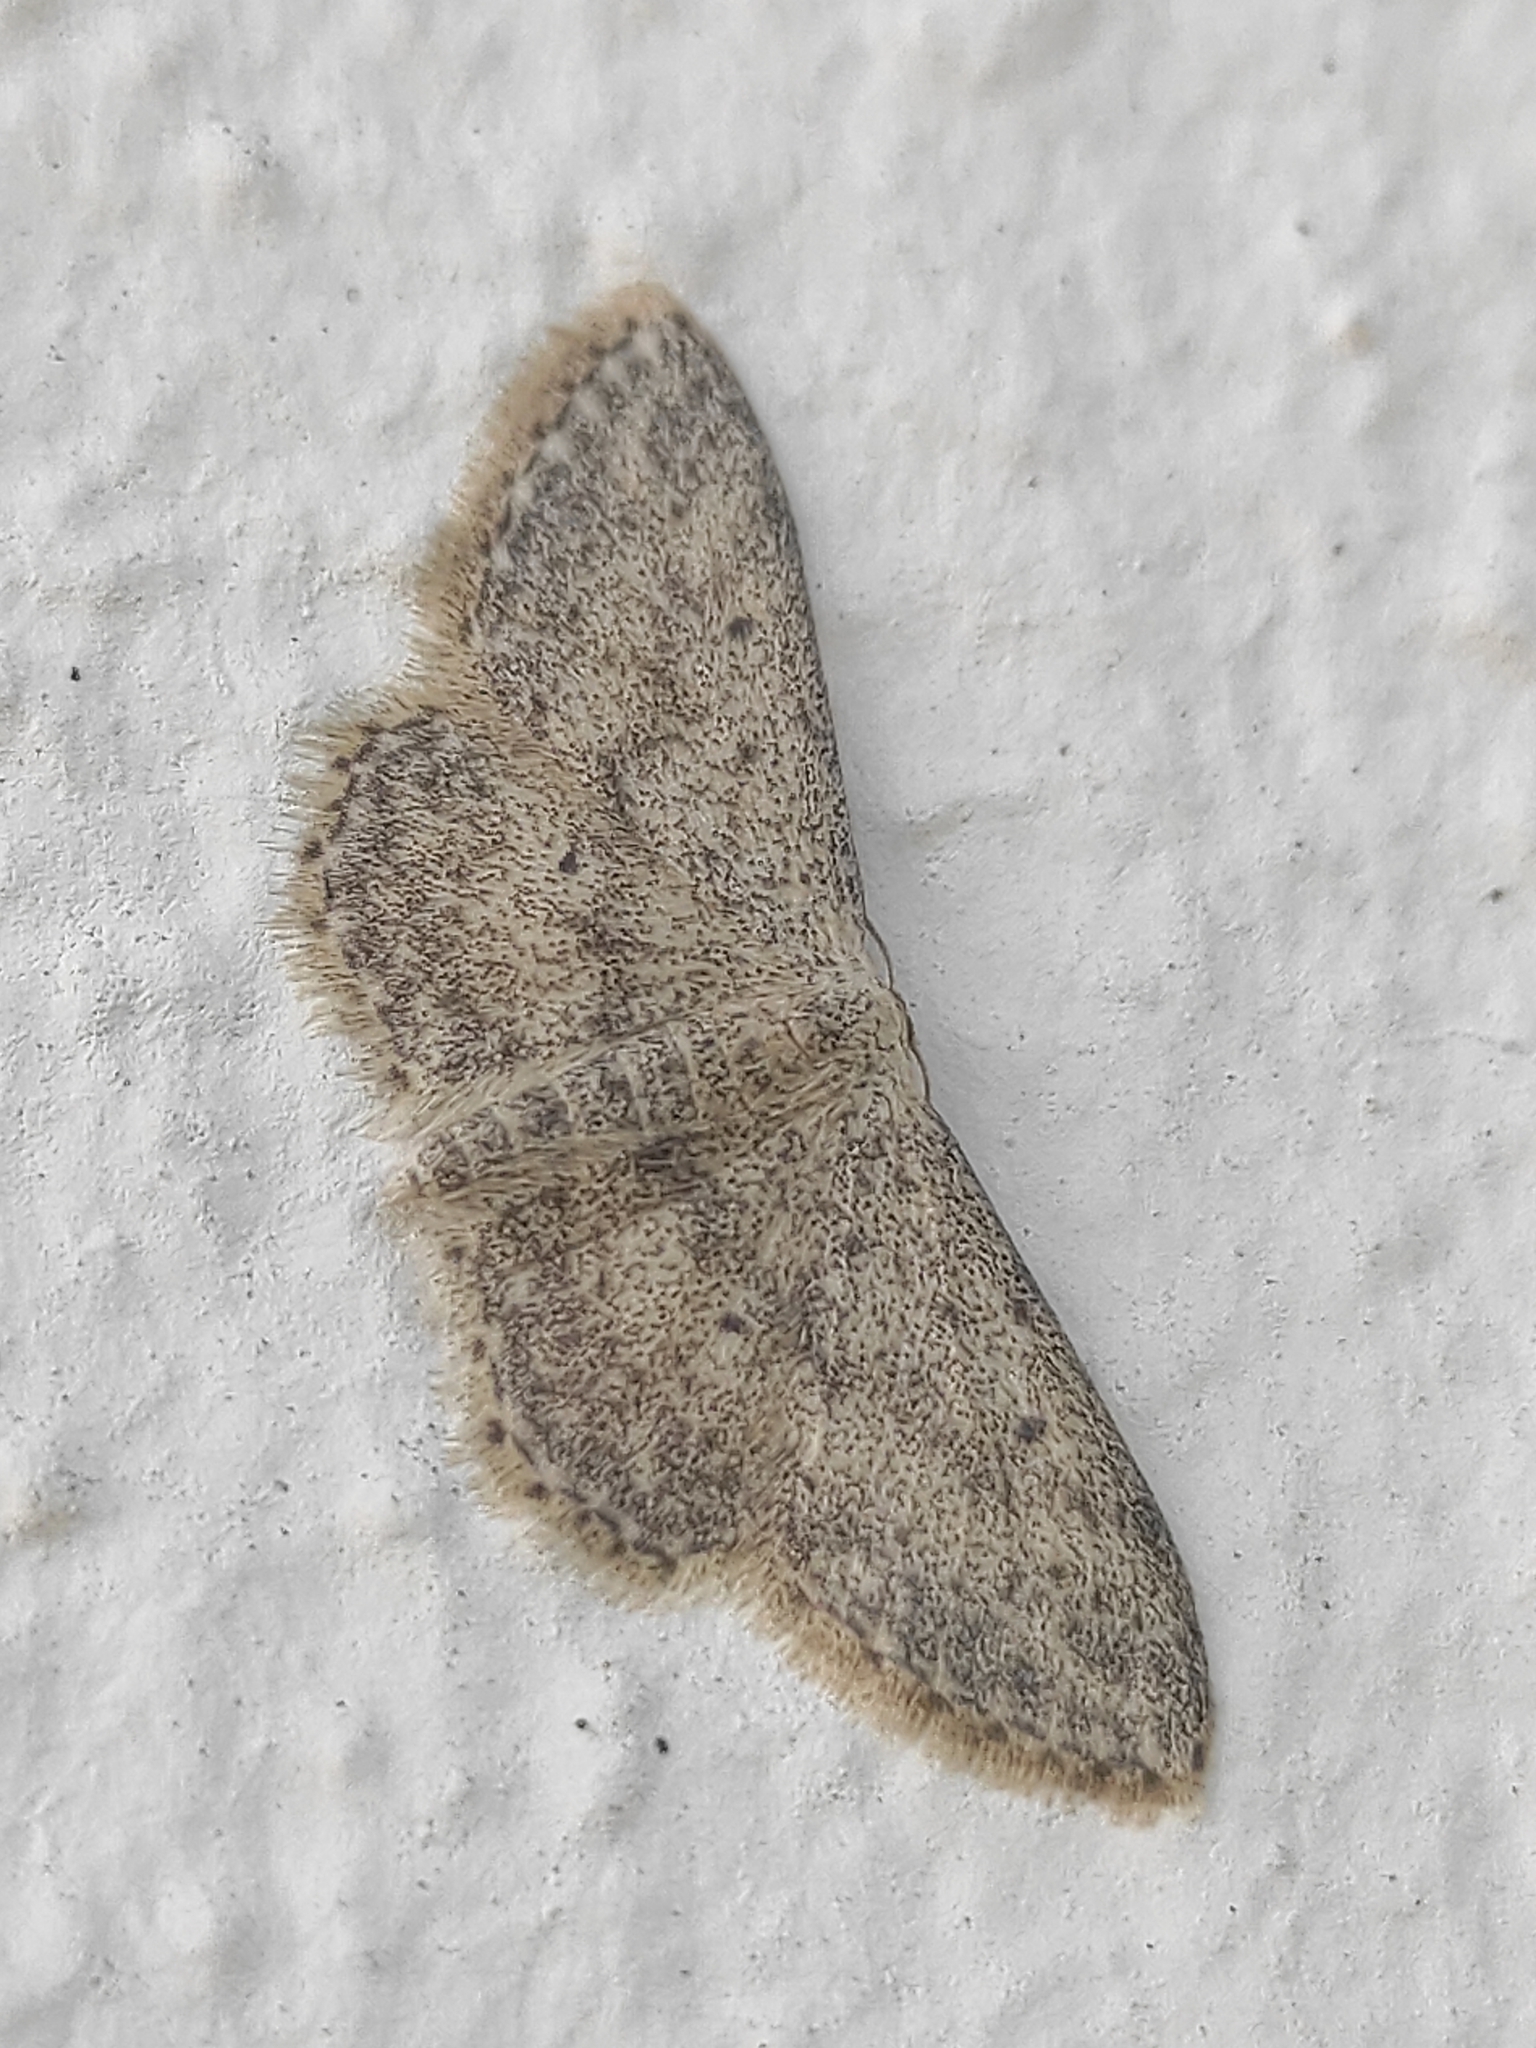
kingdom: Animalia
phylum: Arthropoda
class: Insecta
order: Lepidoptera
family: Geometridae
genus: Idaea
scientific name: Idaea seriata
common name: Small dusty wave
